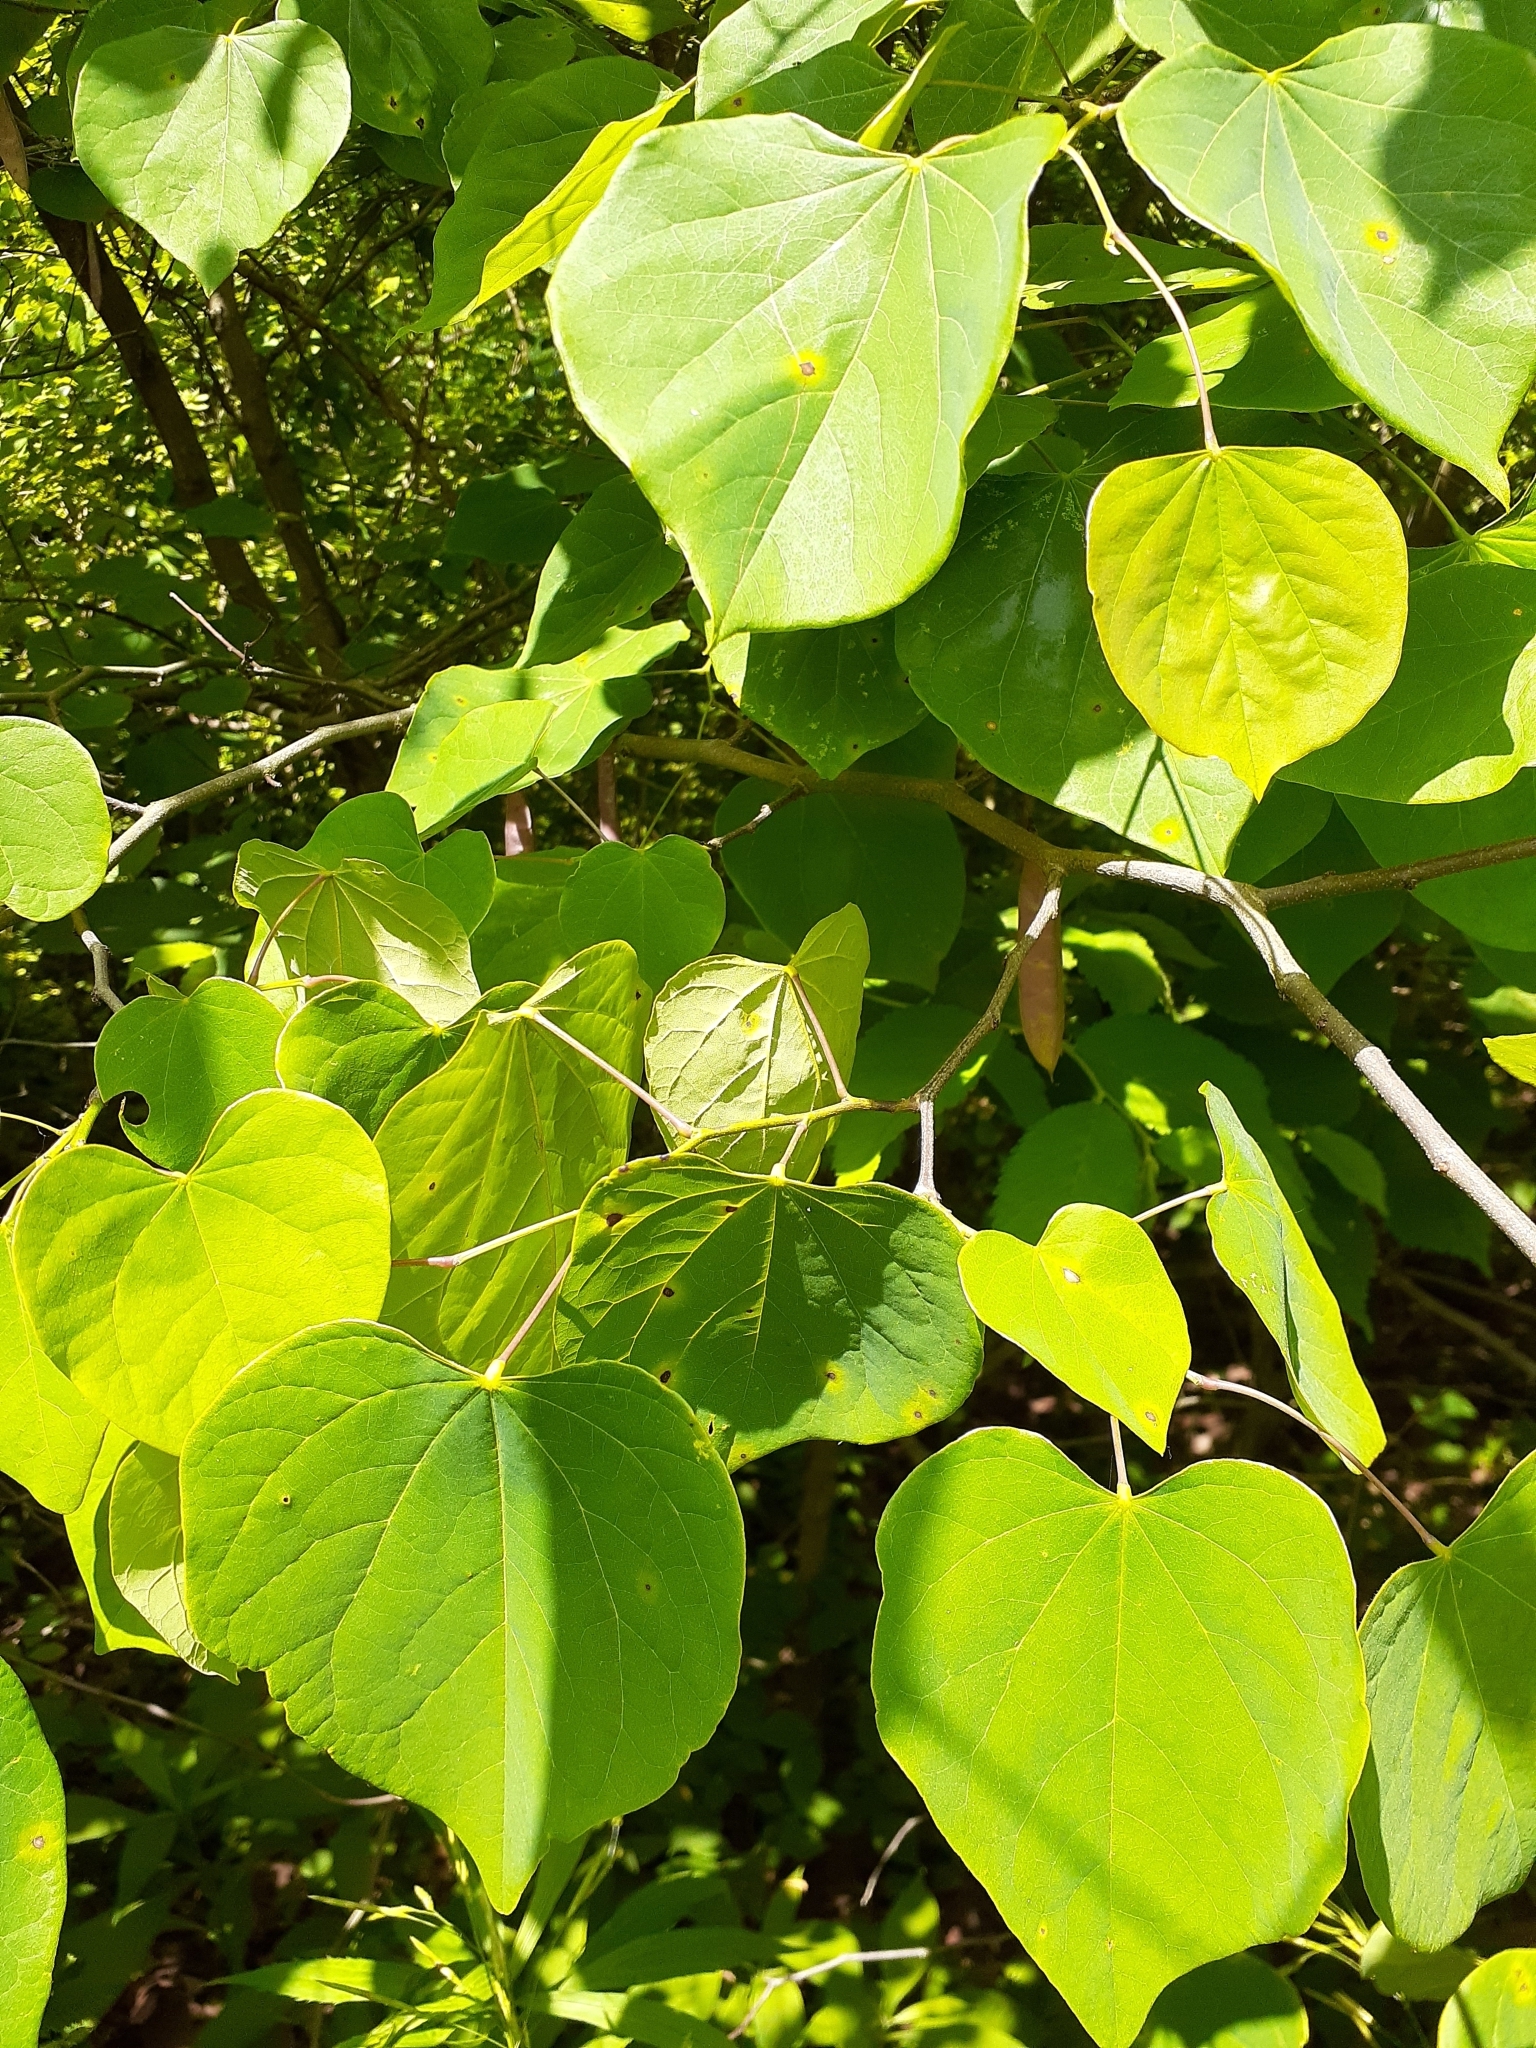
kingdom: Plantae
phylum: Tracheophyta
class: Magnoliopsida
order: Fabales
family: Fabaceae
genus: Cercis
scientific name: Cercis canadensis
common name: Eastern redbud
